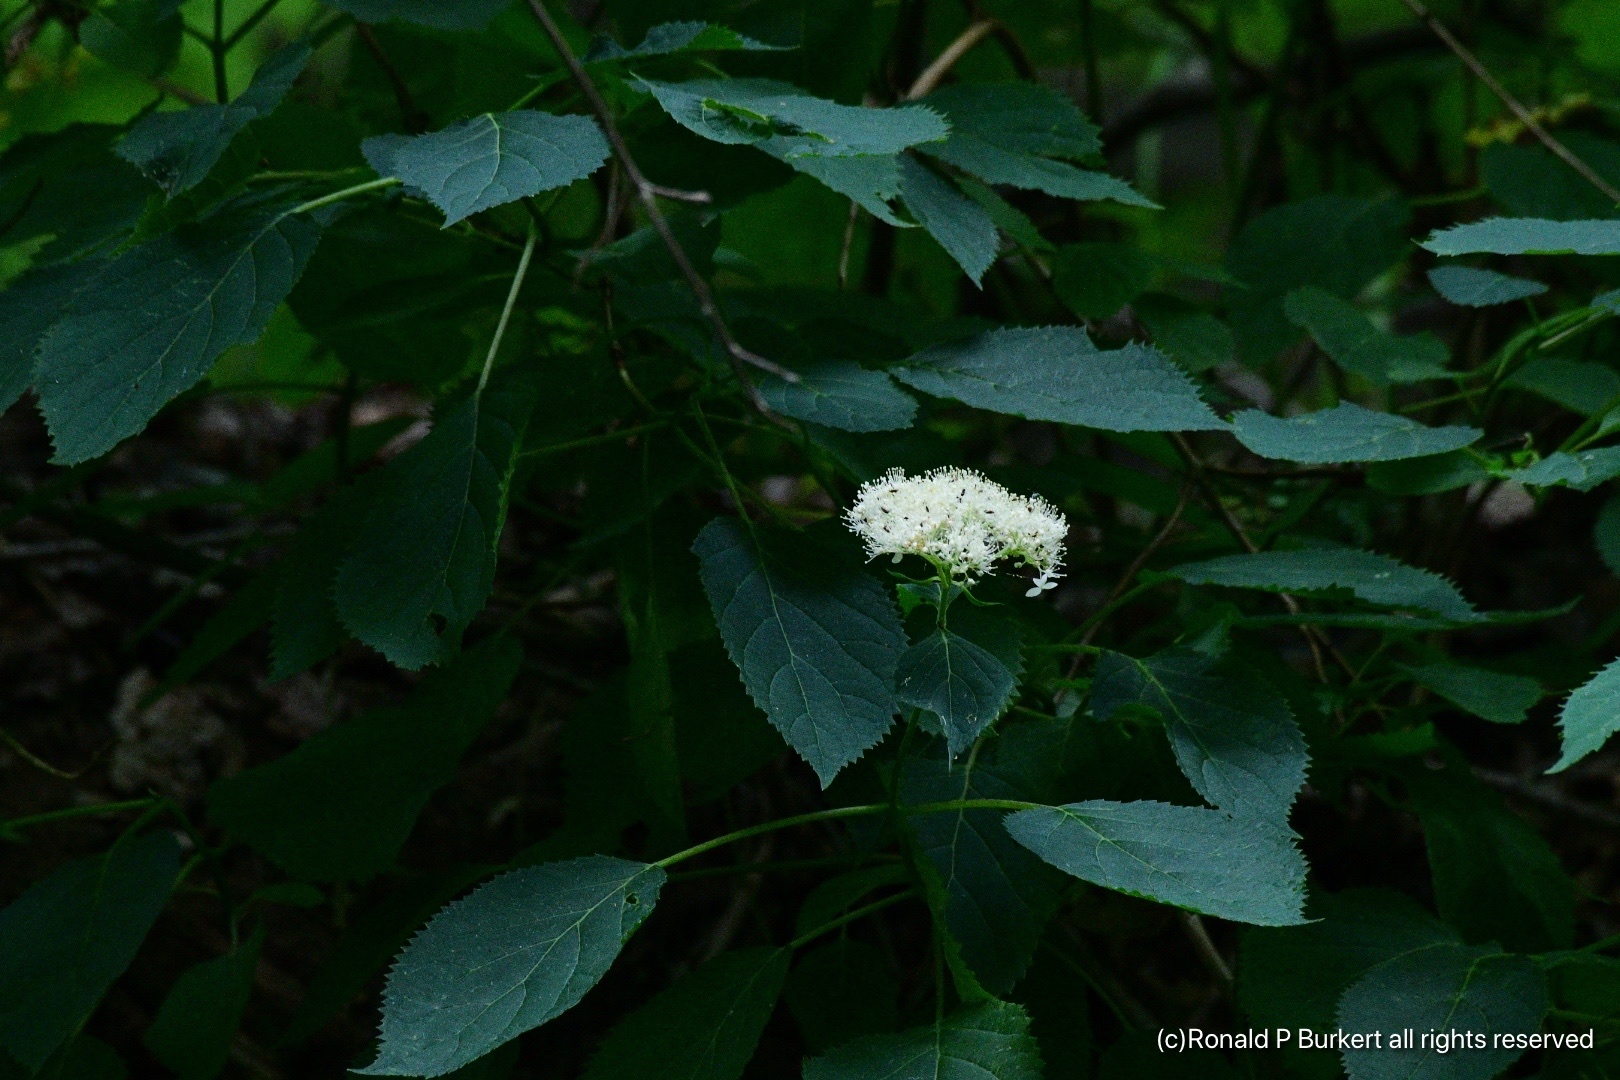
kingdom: Plantae
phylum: Tracheophyta
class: Magnoliopsida
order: Cornales
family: Hydrangeaceae
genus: Hydrangea
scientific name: Hydrangea arborescens
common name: Sevenbark
